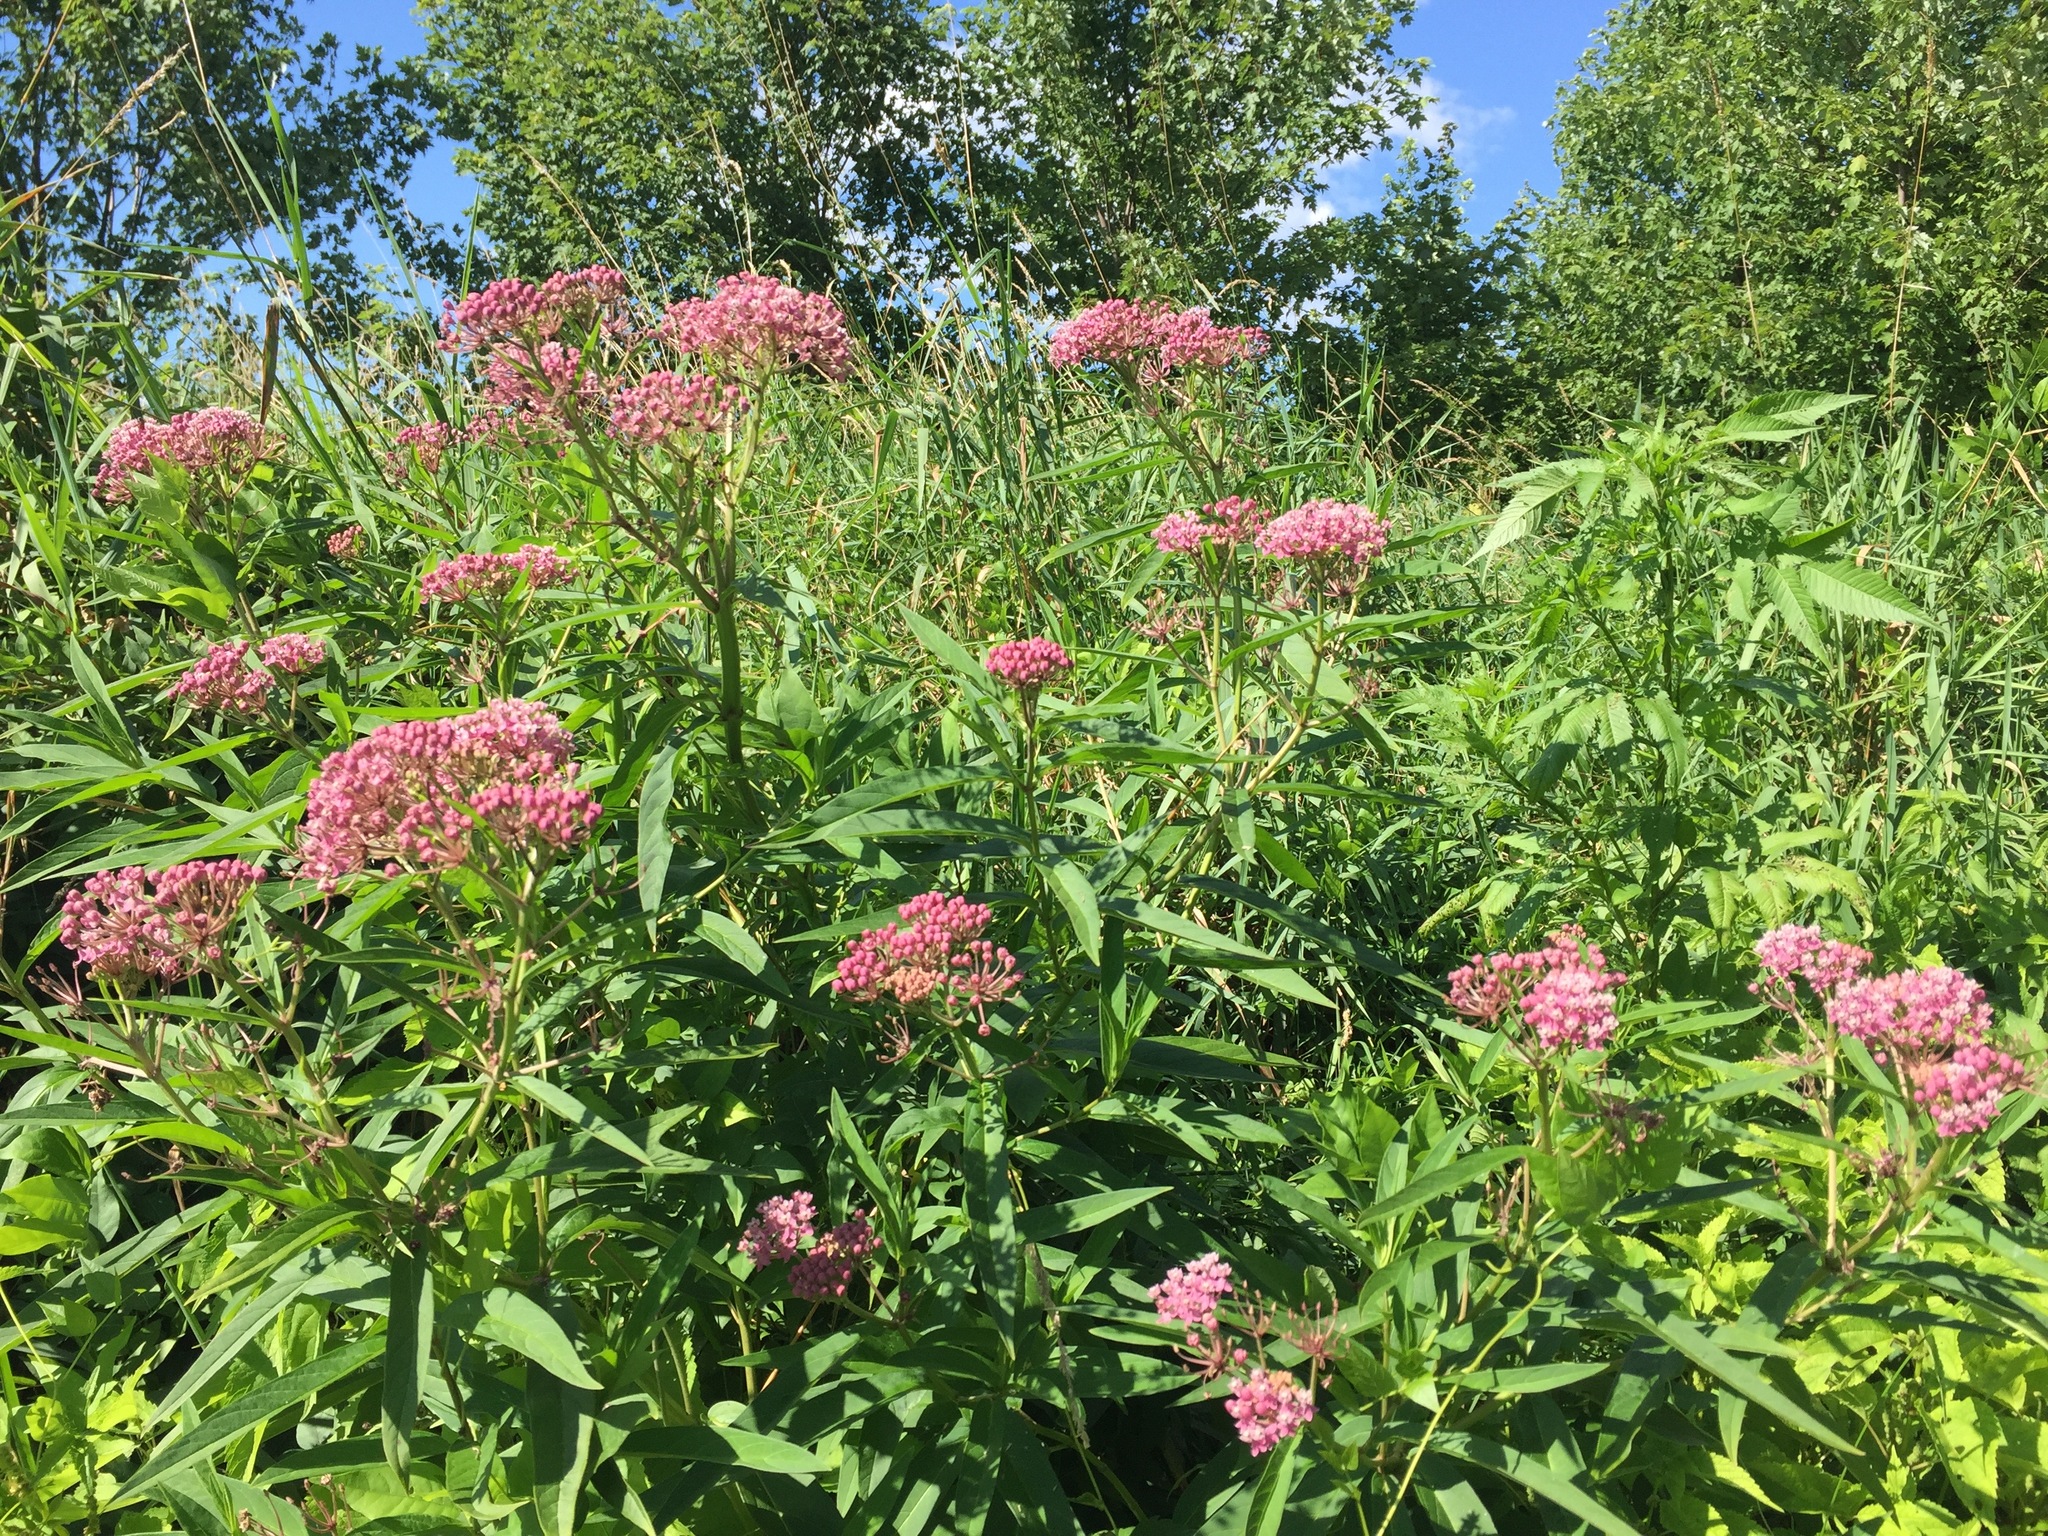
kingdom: Plantae
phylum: Tracheophyta
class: Magnoliopsida
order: Gentianales
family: Apocynaceae
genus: Asclepias
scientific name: Asclepias incarnata
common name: Swamp milkweed
